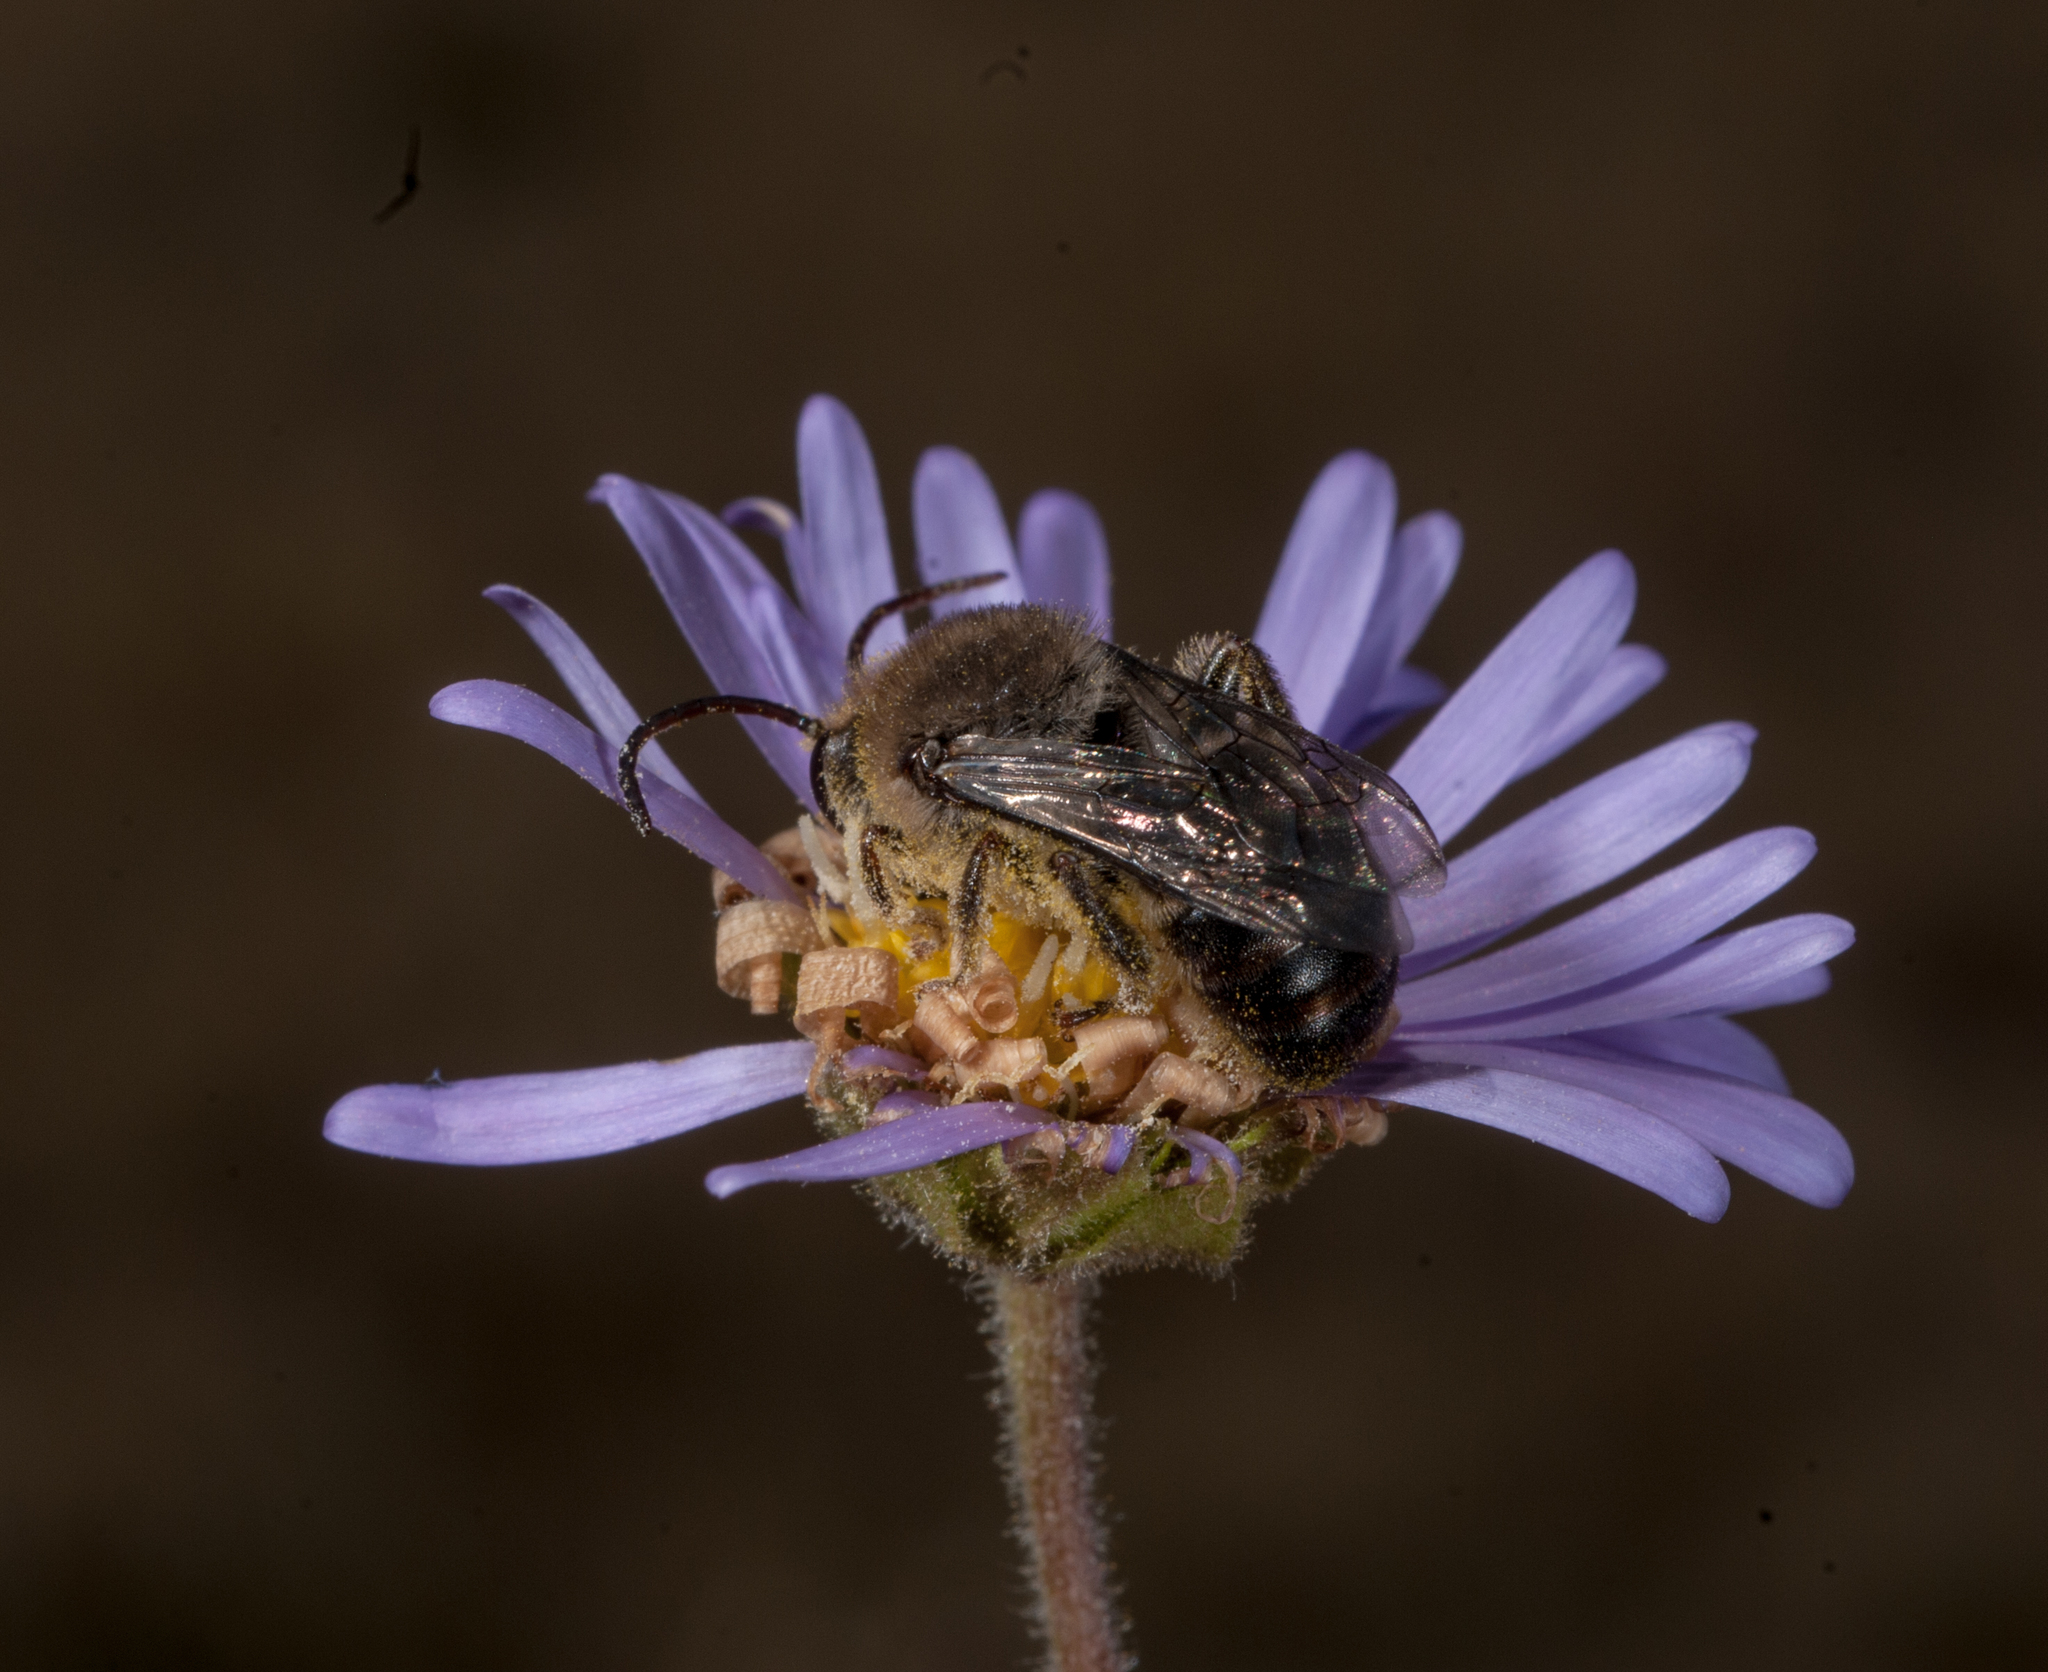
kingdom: Animalia
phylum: Arthropoda
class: Insecta
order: Hymenoptera
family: Apidae
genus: Apis
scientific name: Apis mellifera
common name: Honey bee
